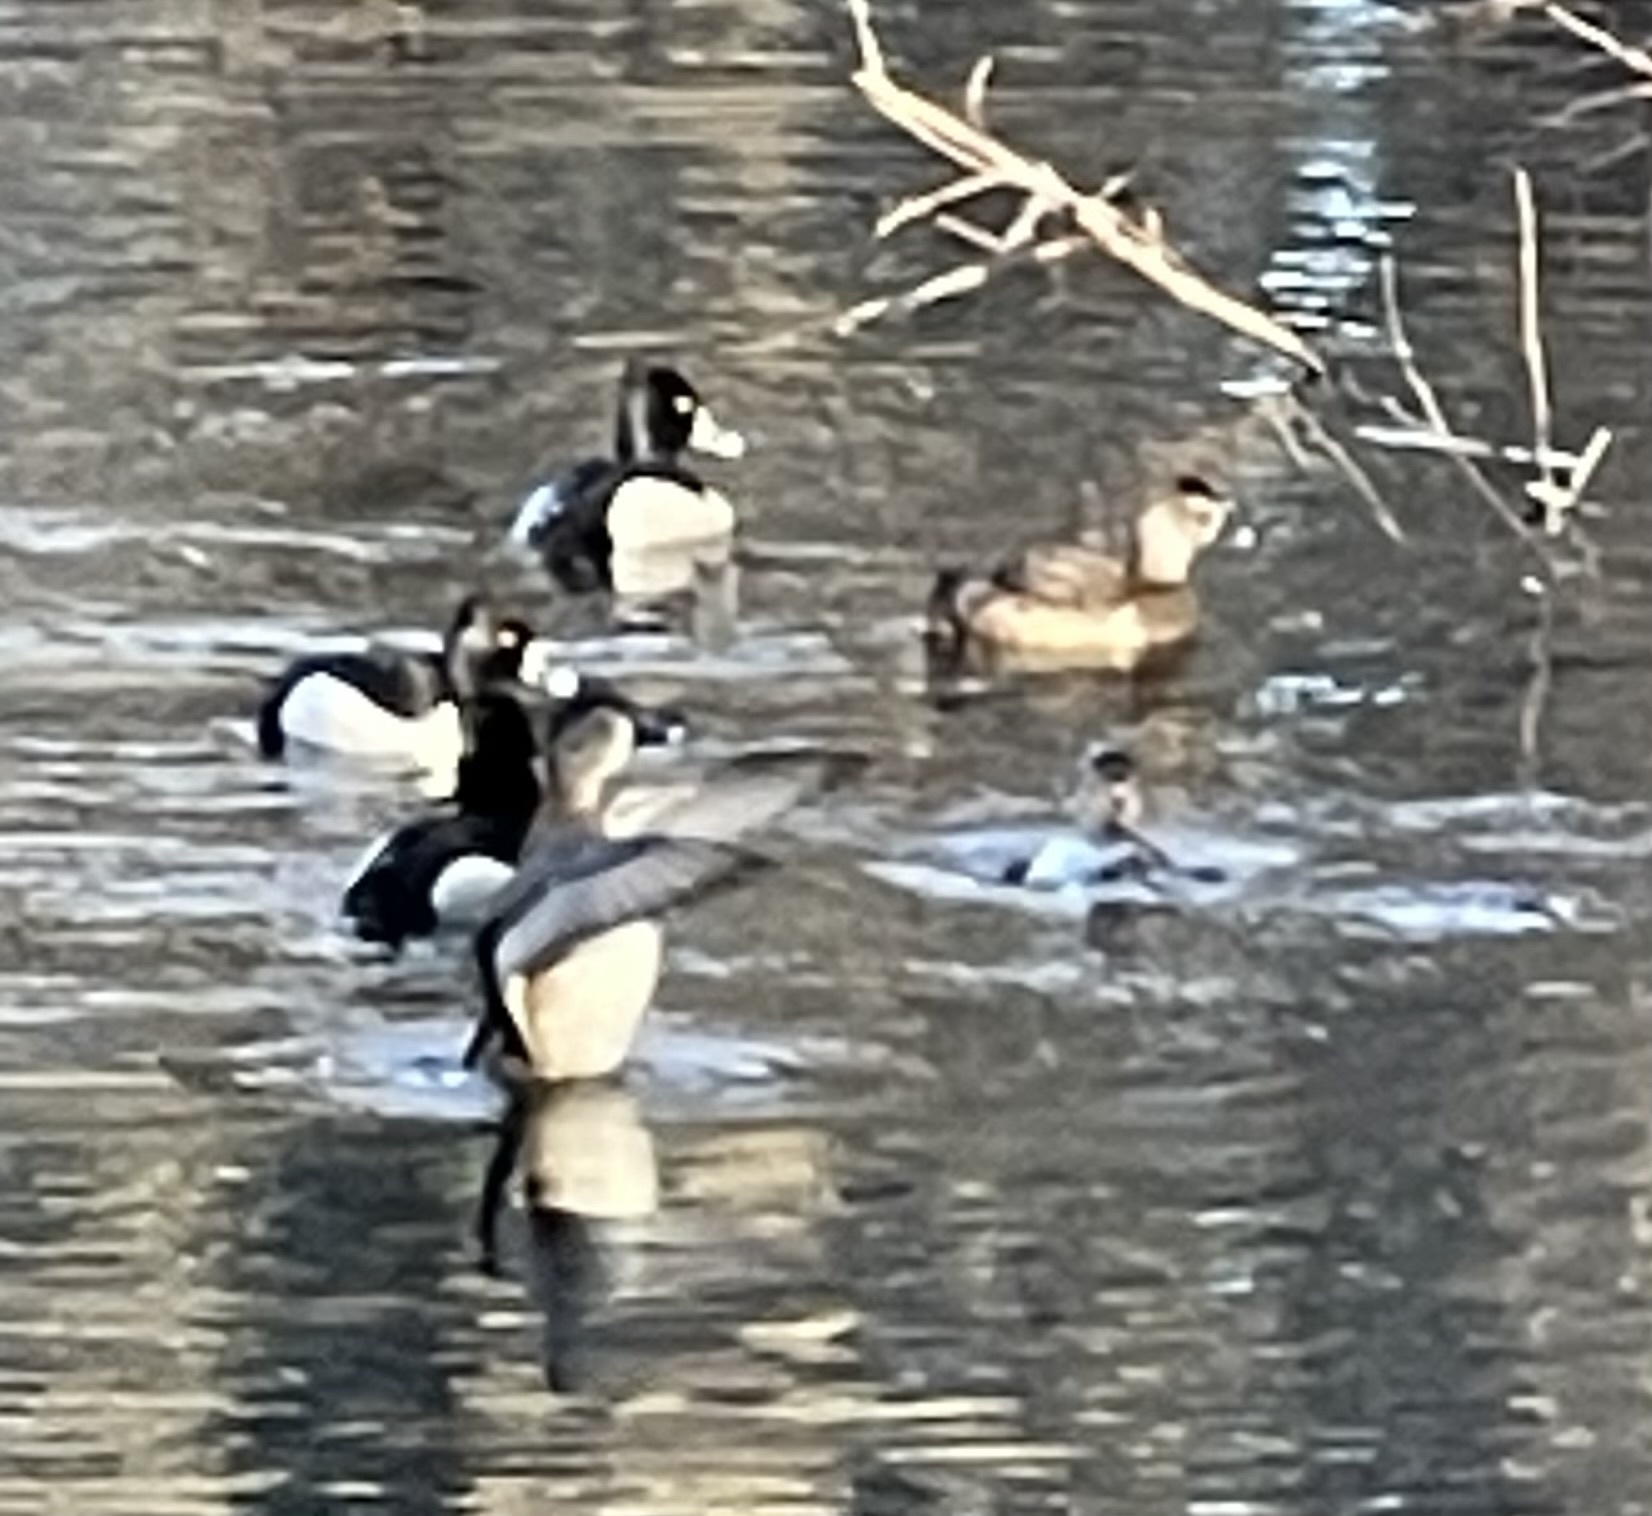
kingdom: Animalia
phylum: Chordata
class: Aves
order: Anseriformes
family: Anatidae
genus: Aythya
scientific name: Aythya collaris
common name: Ring-necked duck
